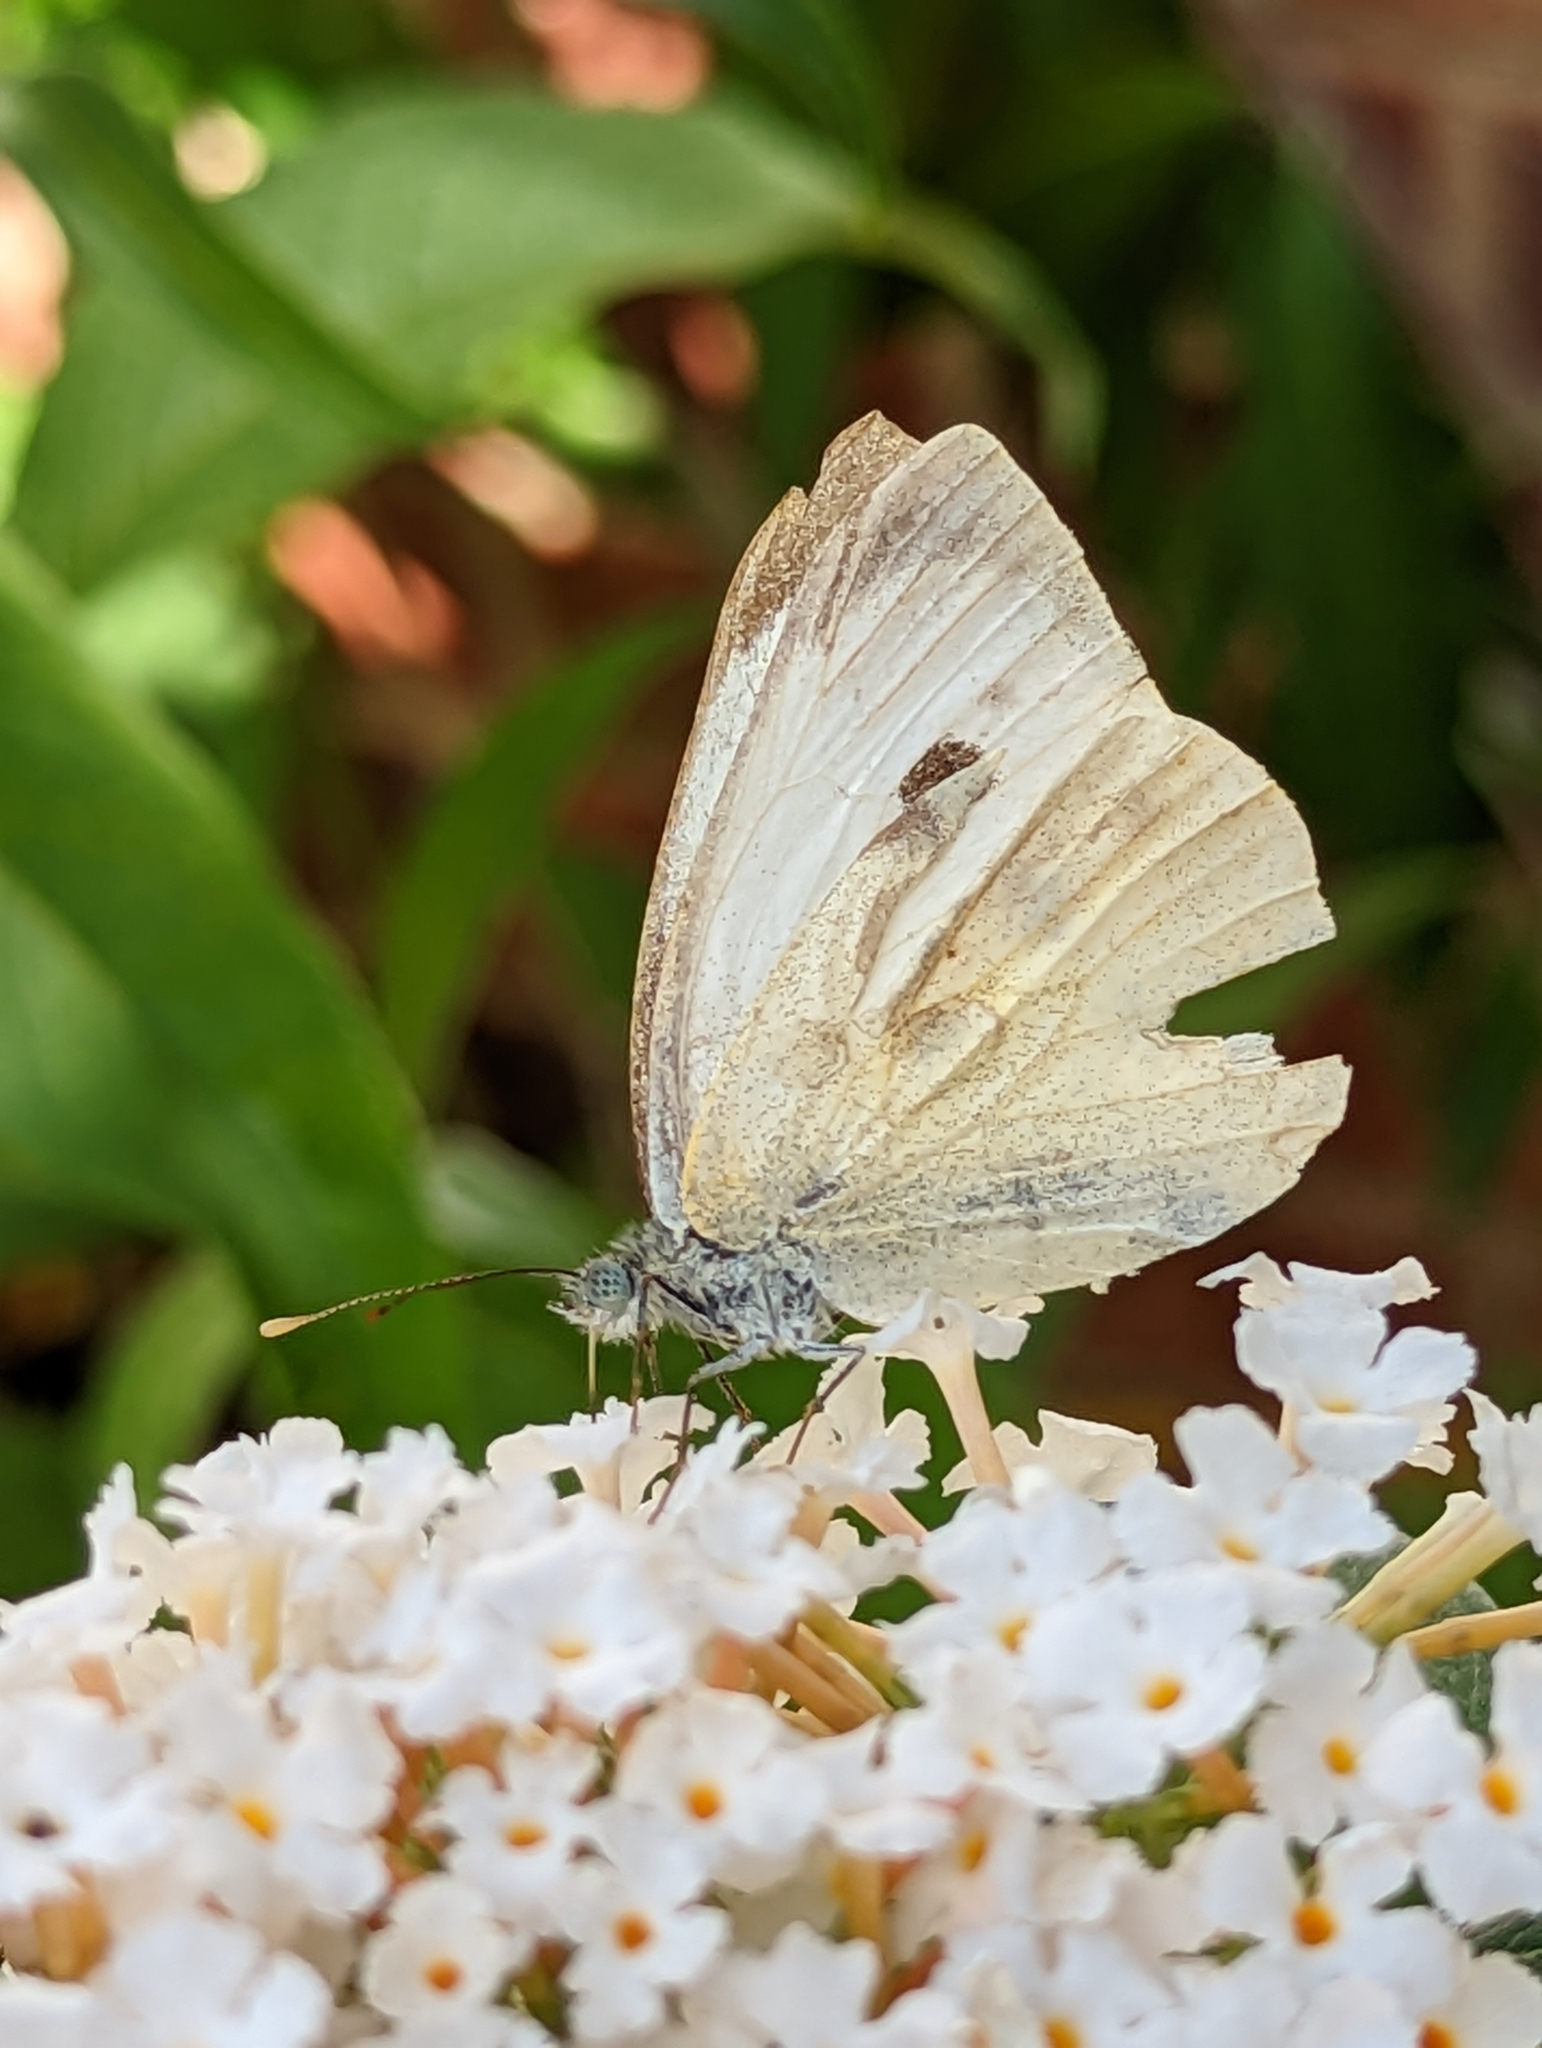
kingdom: Animalia
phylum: Arthropoda
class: Insecta
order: Lepidoptera
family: Pieridae
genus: Pieris
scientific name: Pieris brassicae
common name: Large white
